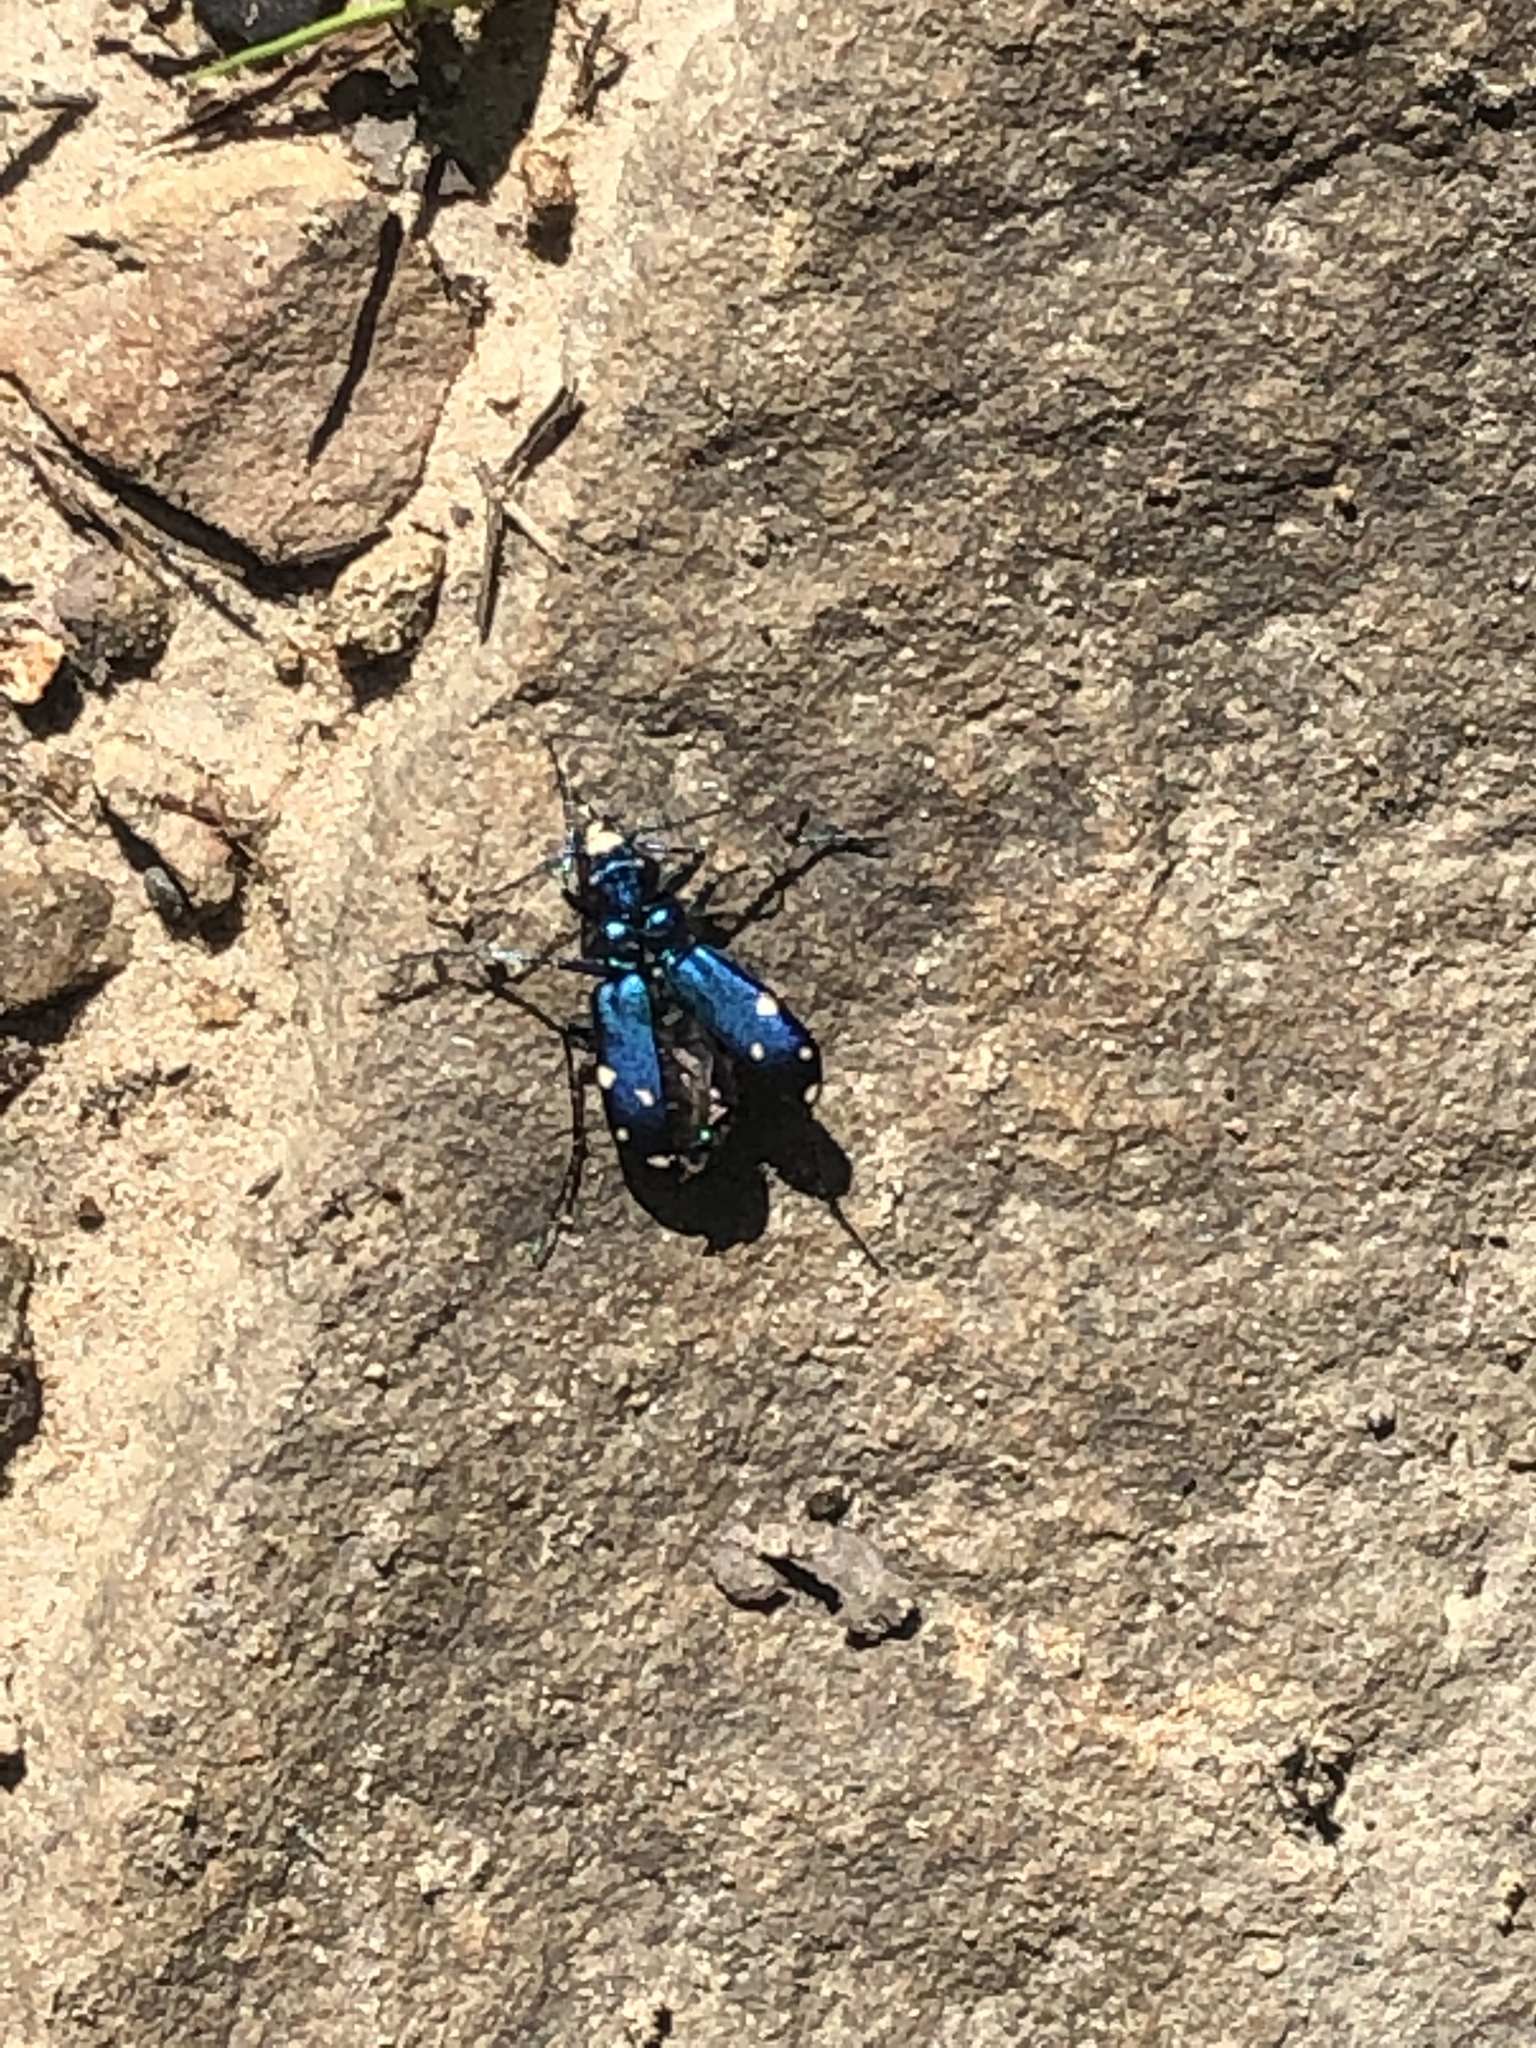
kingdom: Animalia
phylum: Arthropoda
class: Insecta
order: Coleoptera
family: Carabidae
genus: Cicindela
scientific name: Cicindela sexguttata
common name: Six-spotted tiger beetle
